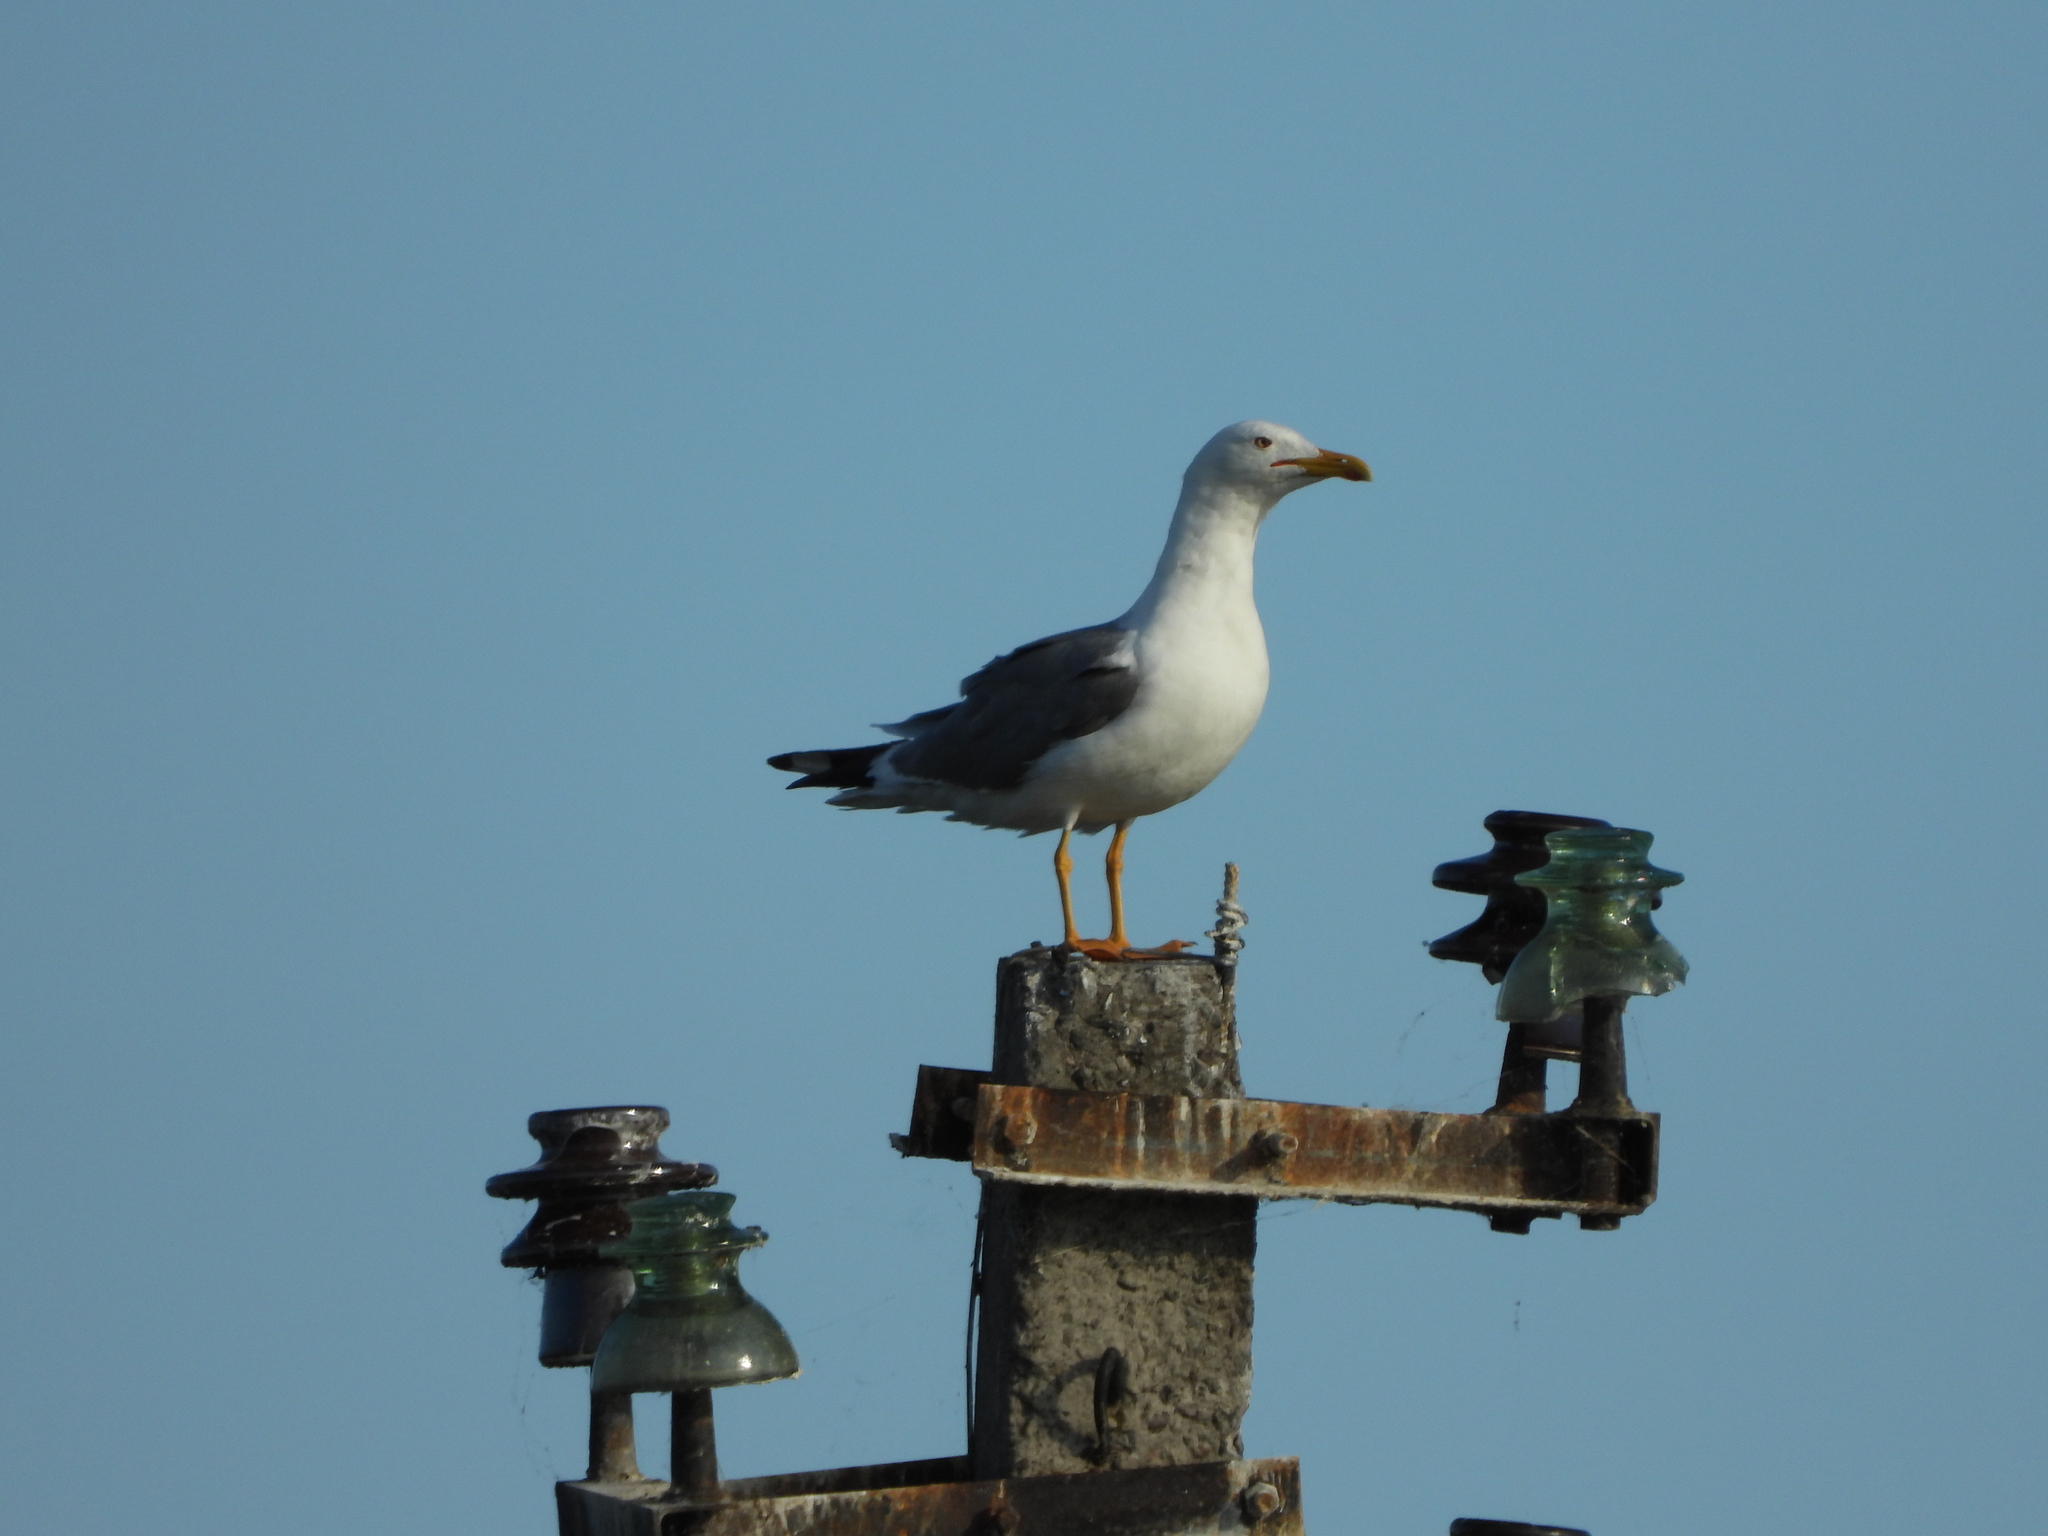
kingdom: Animalia
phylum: Chordata
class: Aves
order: Charadriiformes
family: Laridae
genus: Larus
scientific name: Larus fuscus
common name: Lesser black-backed gull
